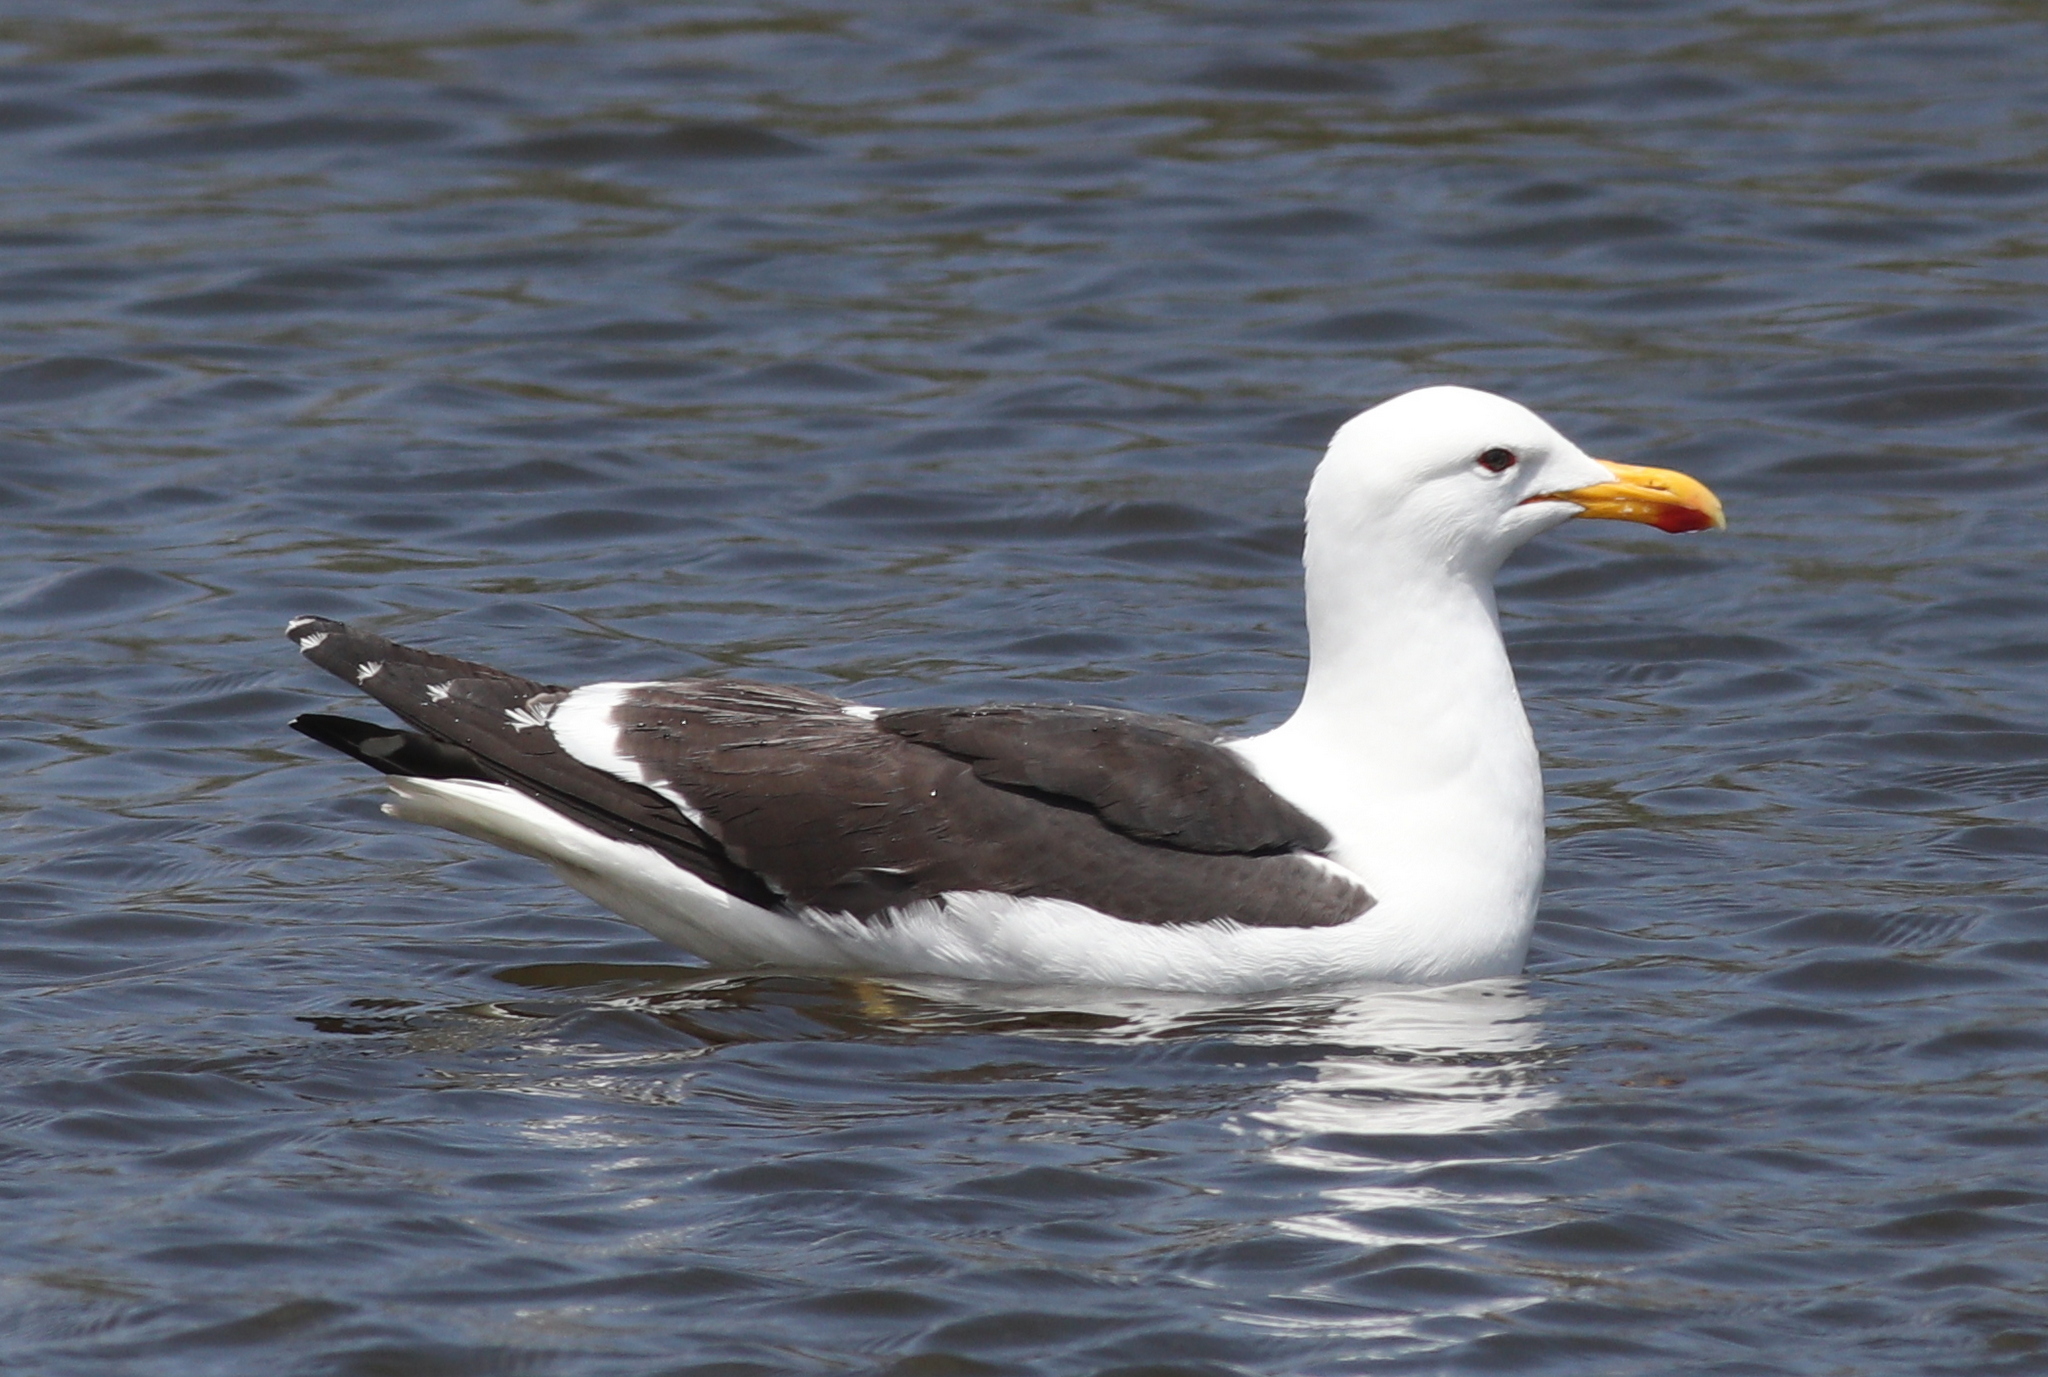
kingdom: Animalia
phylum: Chordata
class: Aves
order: Charadriiformes
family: Laridae
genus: Larus
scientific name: Larus dominicanus
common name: Kelp gull
